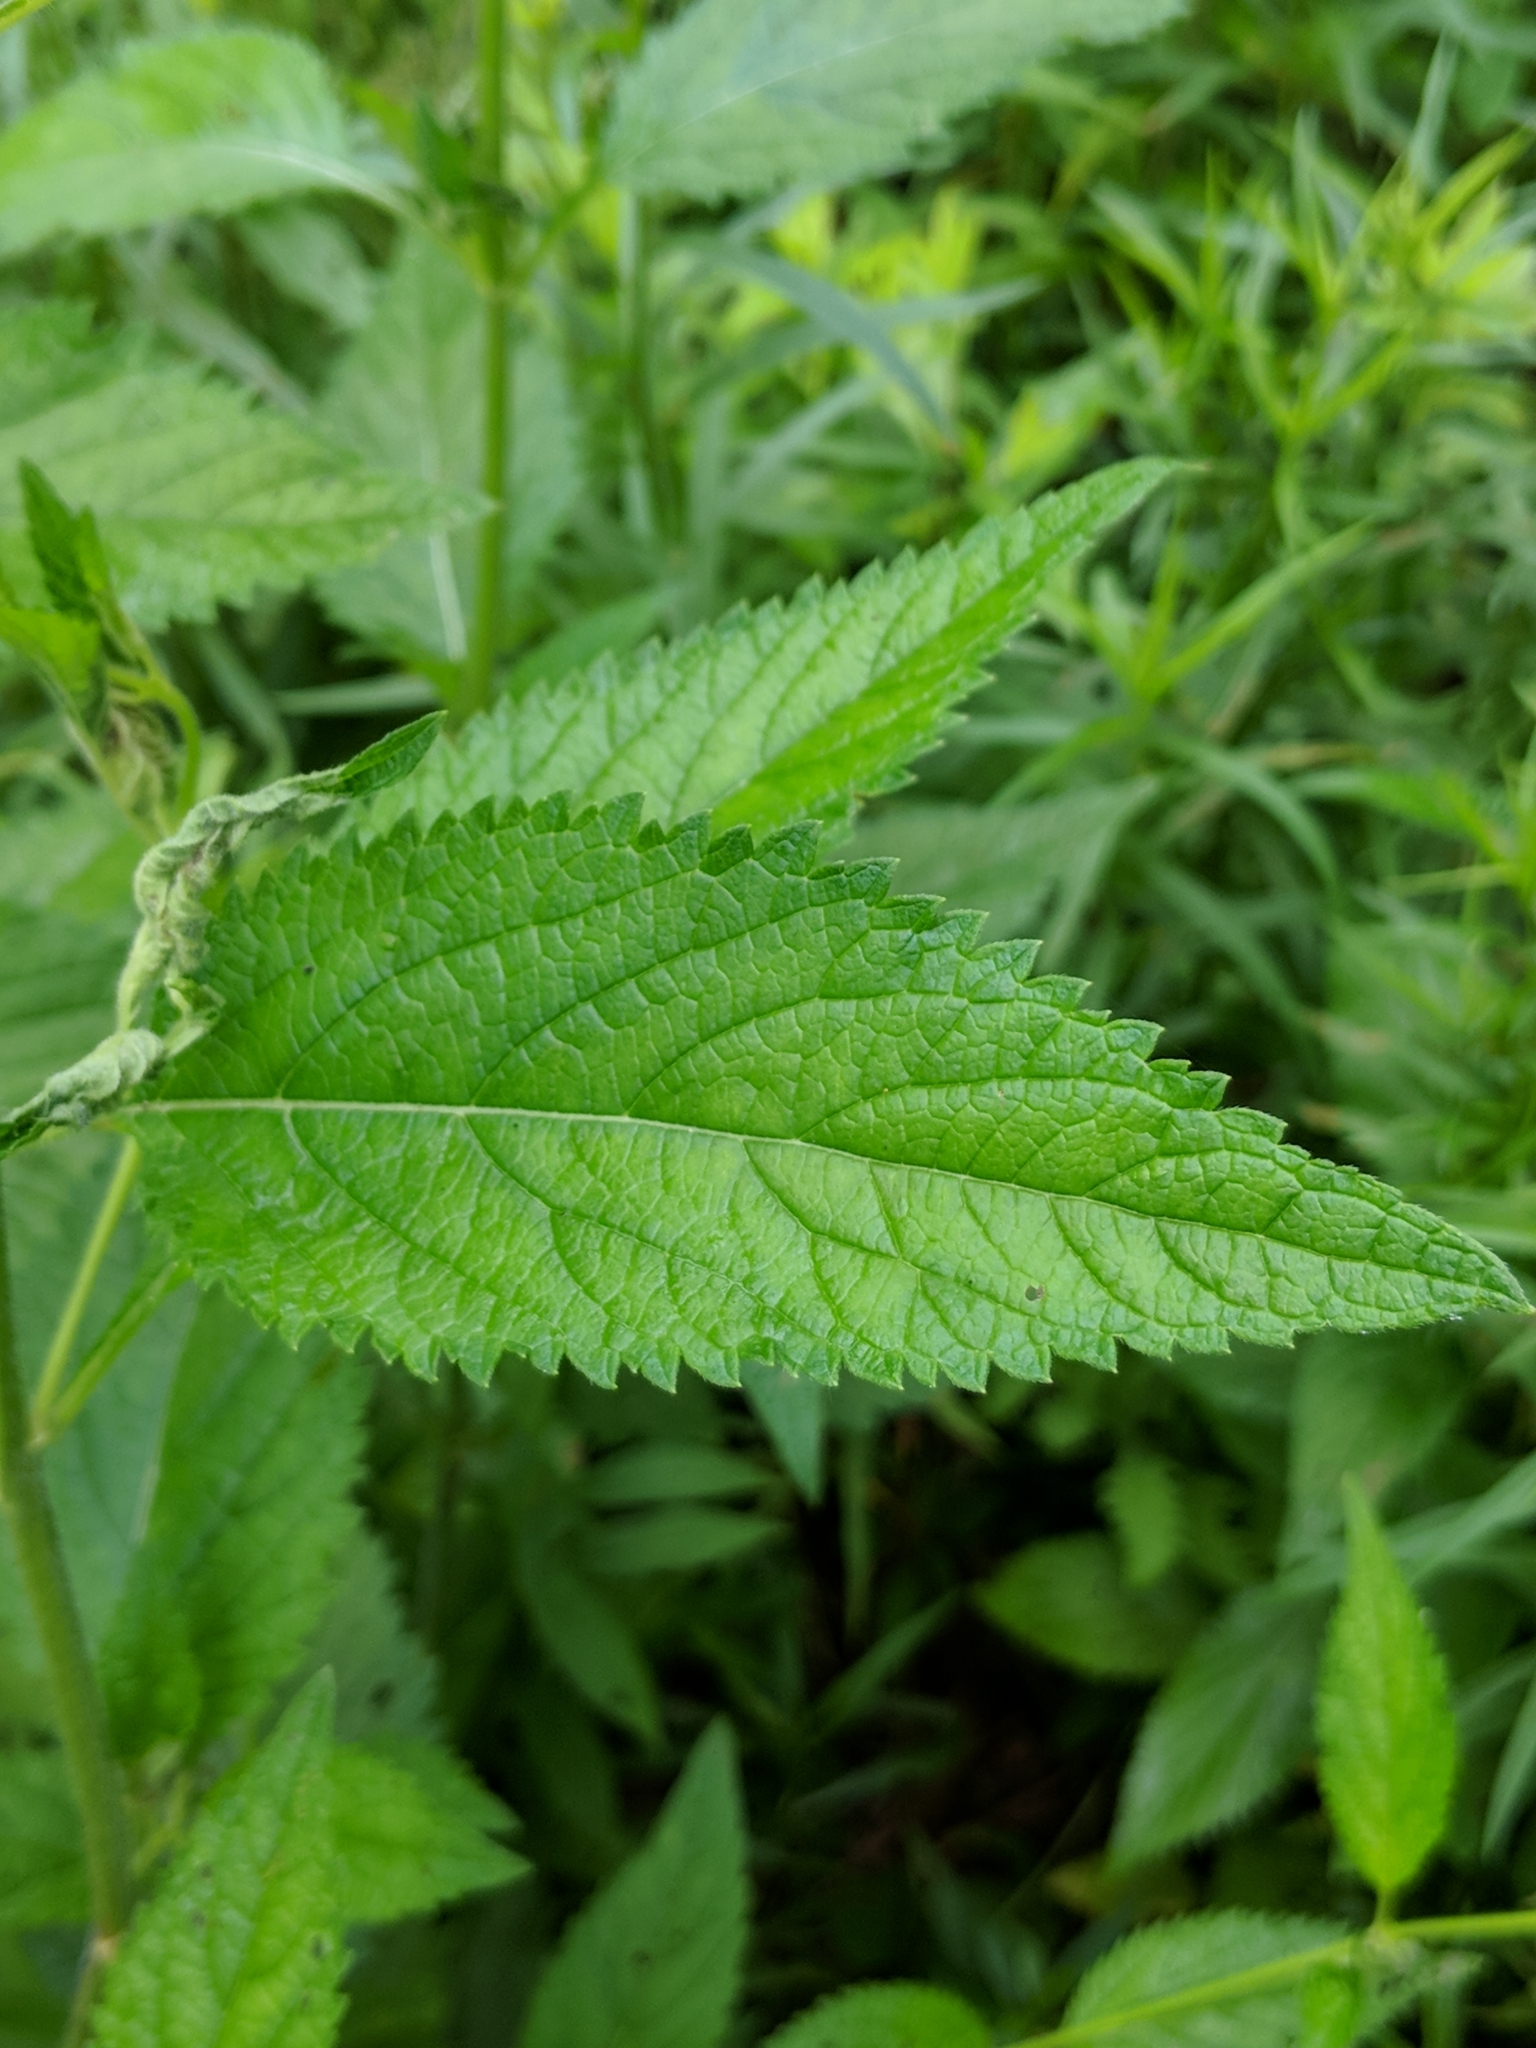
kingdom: Plantae
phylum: Tracheophyta
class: Magnoliopsida
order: Lamiales
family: Verbenaceae
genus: Verbena
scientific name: Verbena urticifolia
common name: Nettle-leaved vervain
